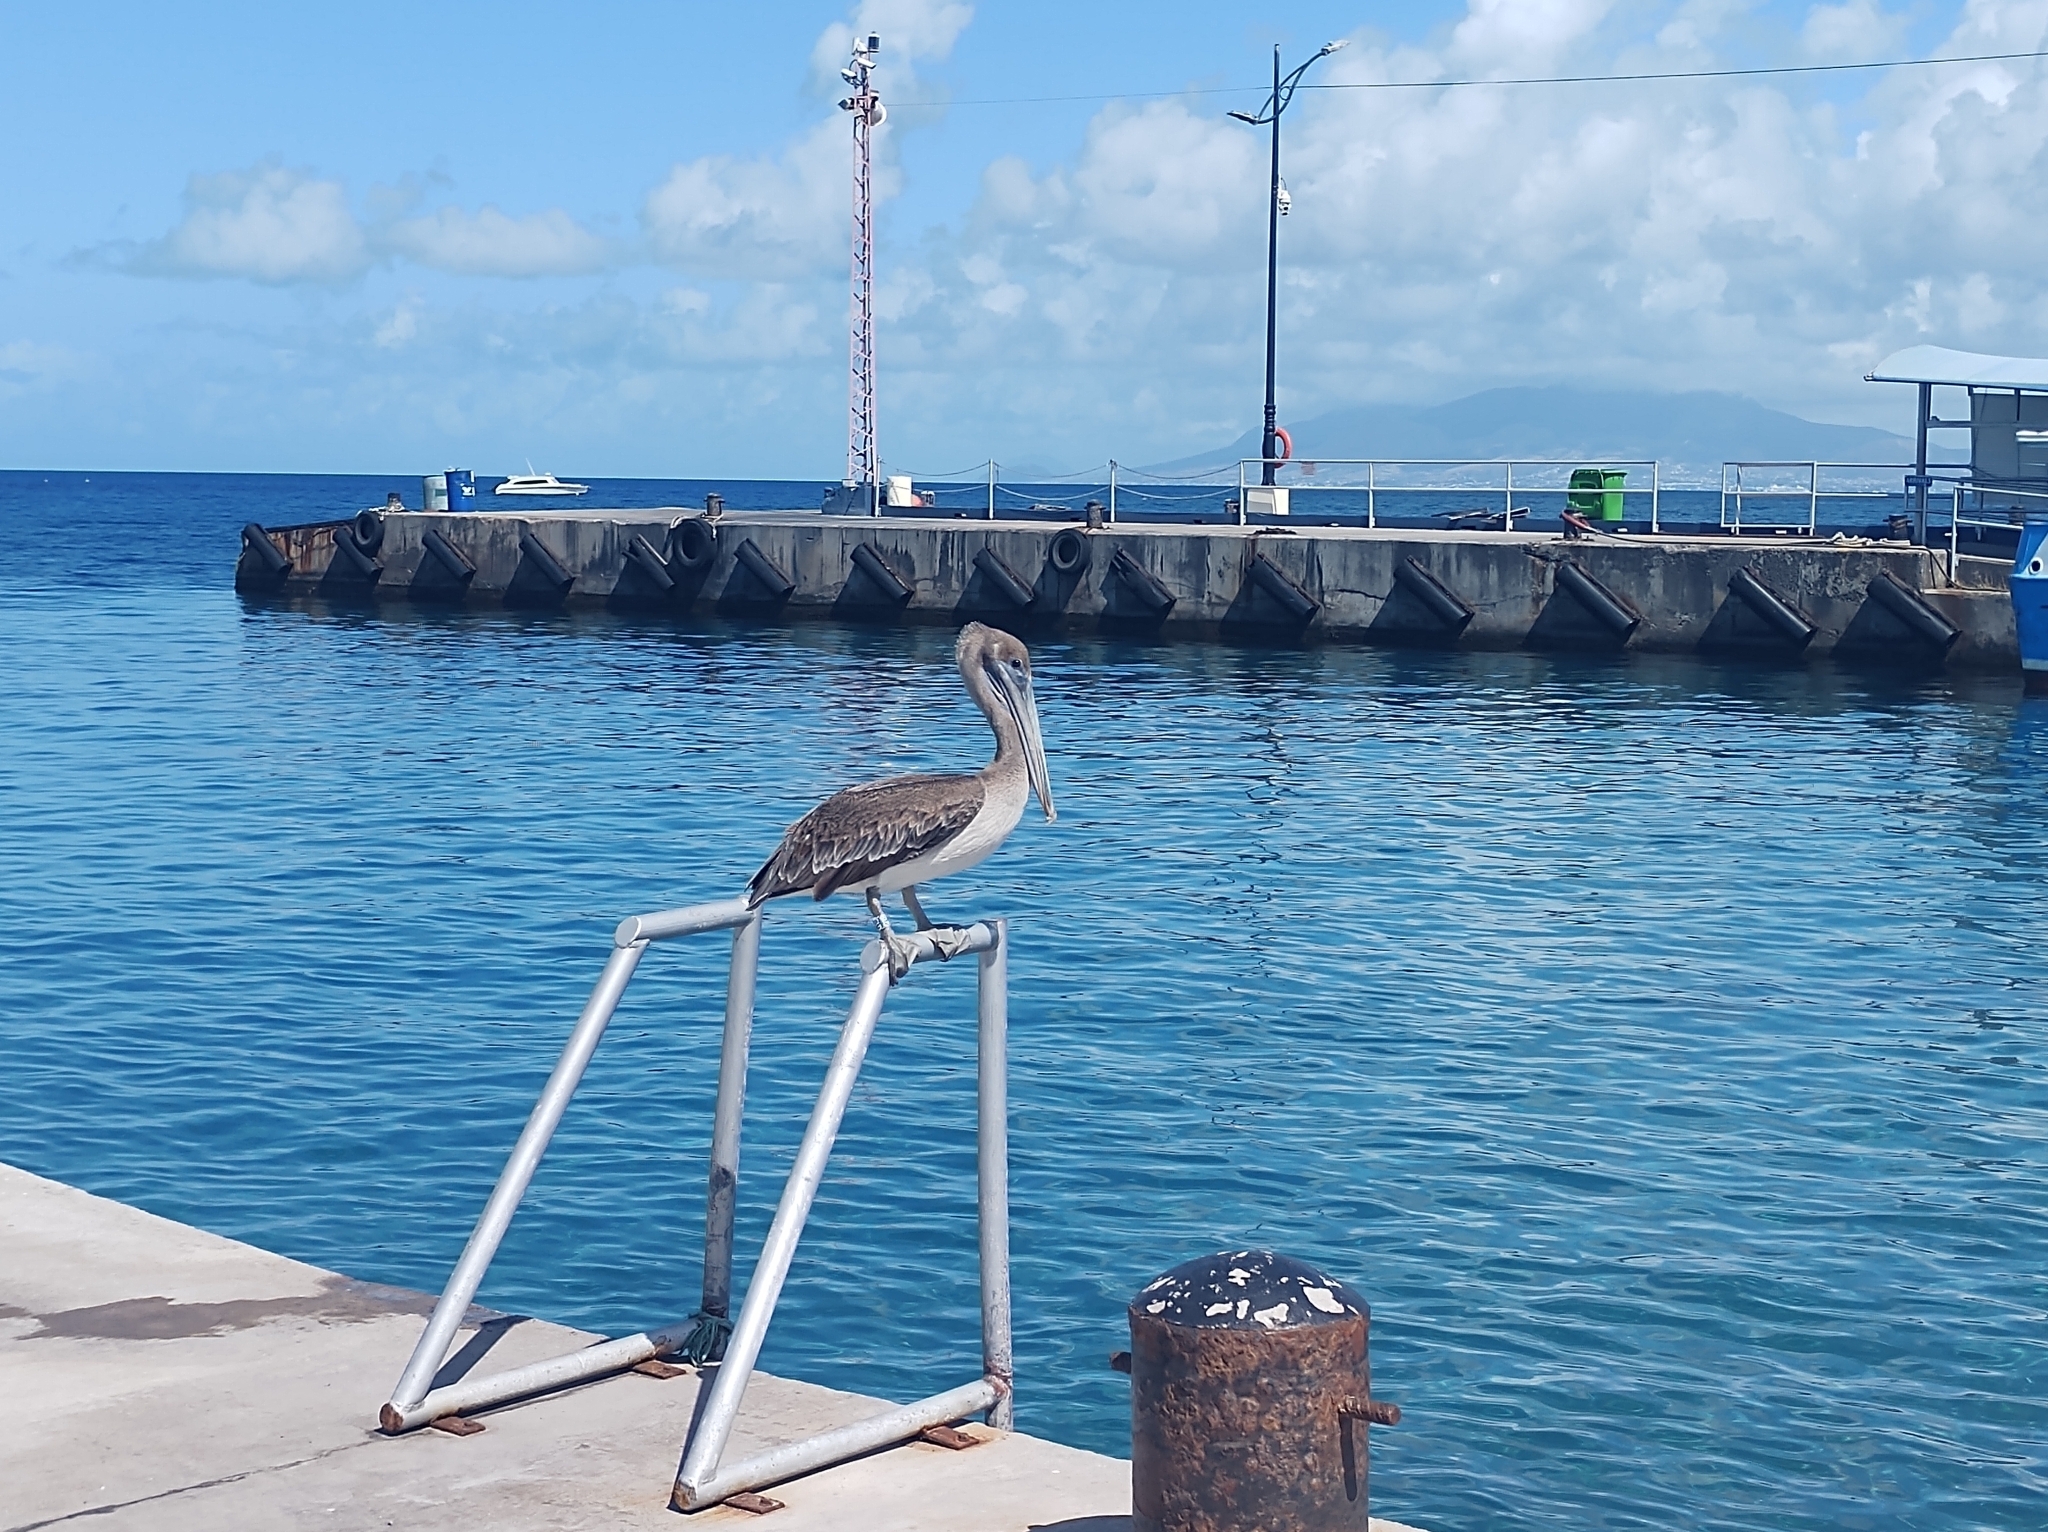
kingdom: Animalia
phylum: Chordata
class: Aves
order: Pelecaniformes
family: Pelecanidae
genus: Pelecanus
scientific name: Pelecanus occidentalis
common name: Brown pelican
